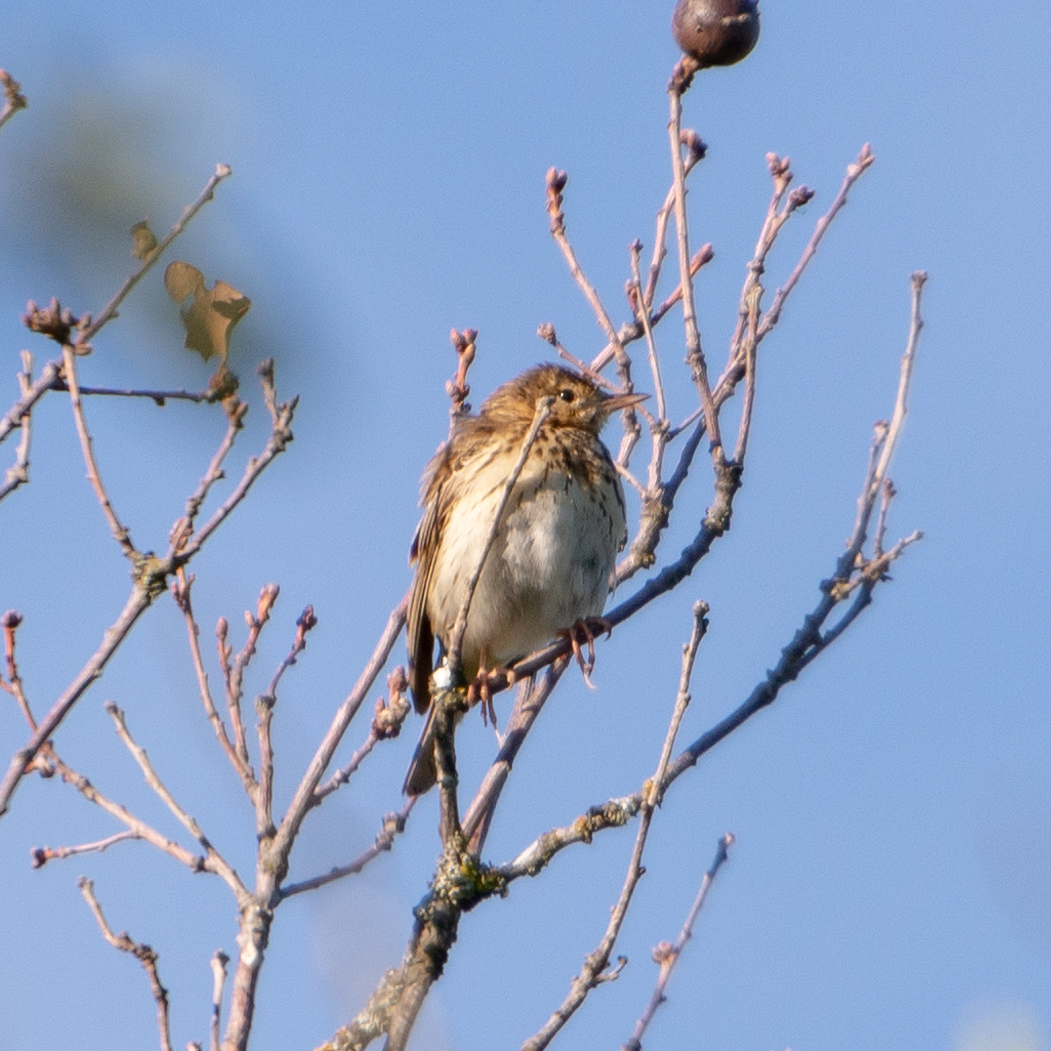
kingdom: Animalia
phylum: Chordata
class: Aves
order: Passeriformes
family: Motacillidae
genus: Anthus
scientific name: Anthus trivialis
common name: Tree pipit
